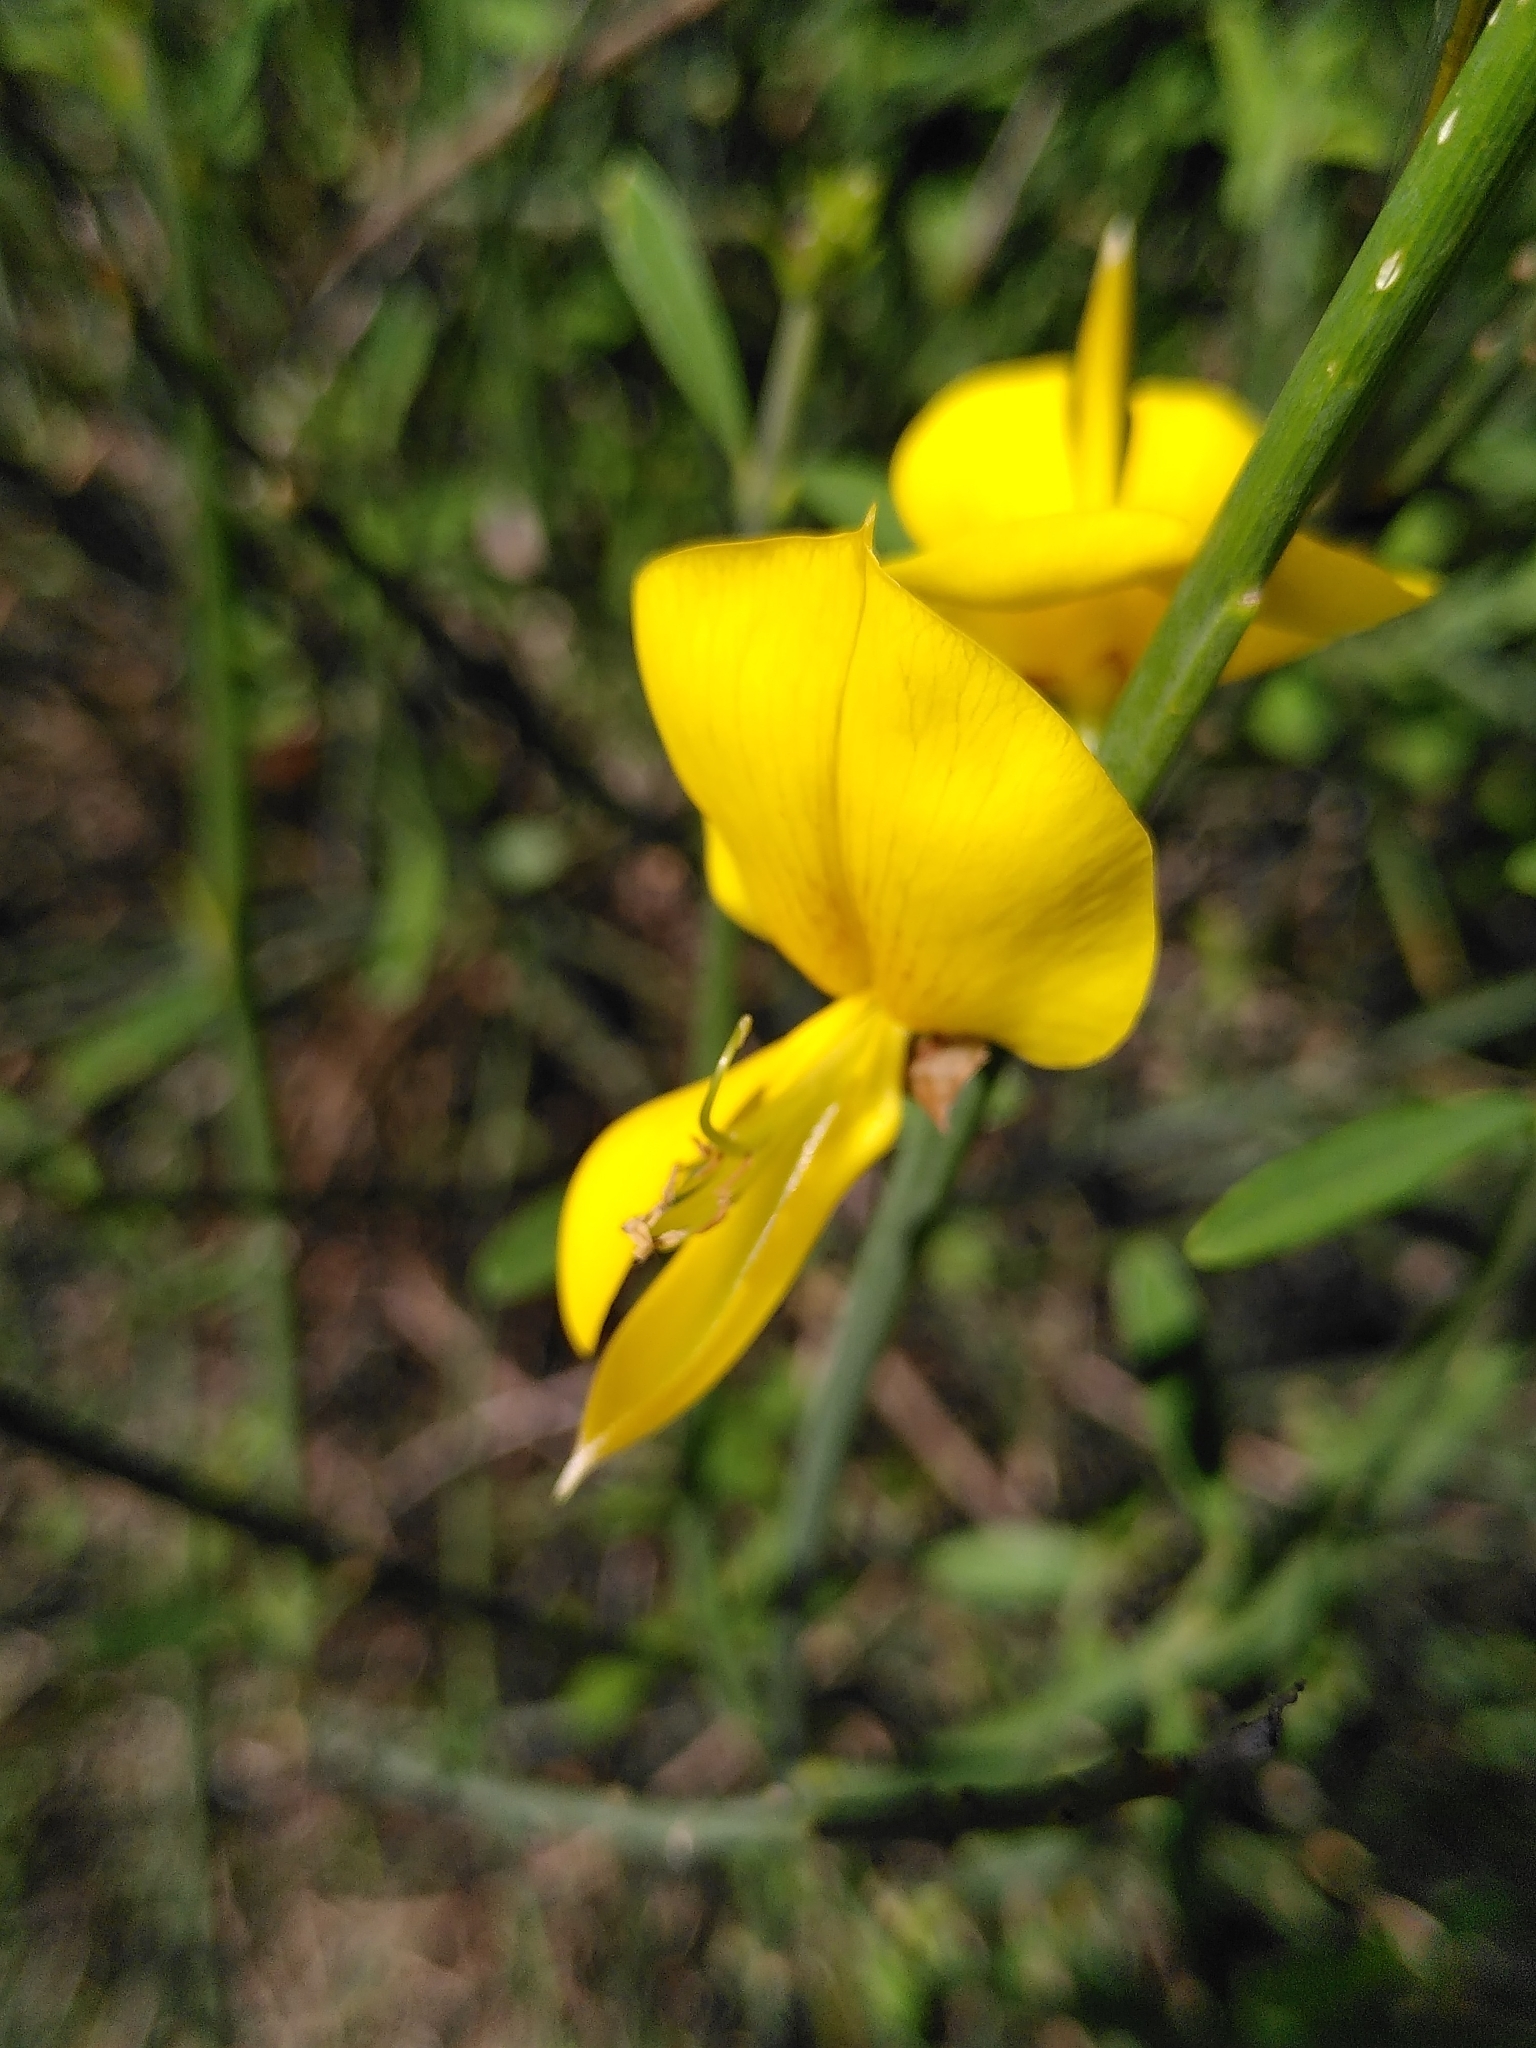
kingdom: Plantae
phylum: Tracheophyta
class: Magnoliopsida
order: Fabales
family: Fabaceae
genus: Spartium
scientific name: Spartium junceum
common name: Spanish broom
